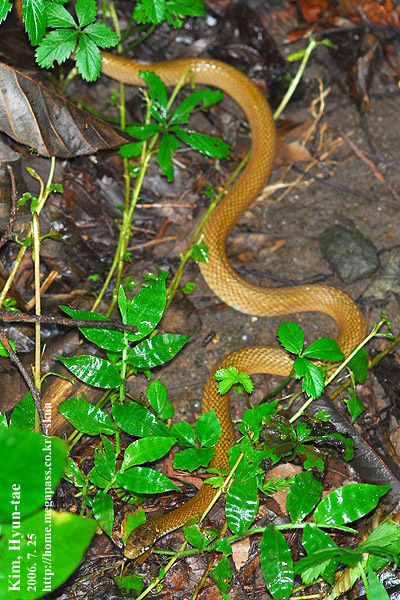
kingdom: Animalia
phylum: Chordata
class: Squamata
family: Colubridae
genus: Hebius
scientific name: Hebius vibakari
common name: Japanese keelback
